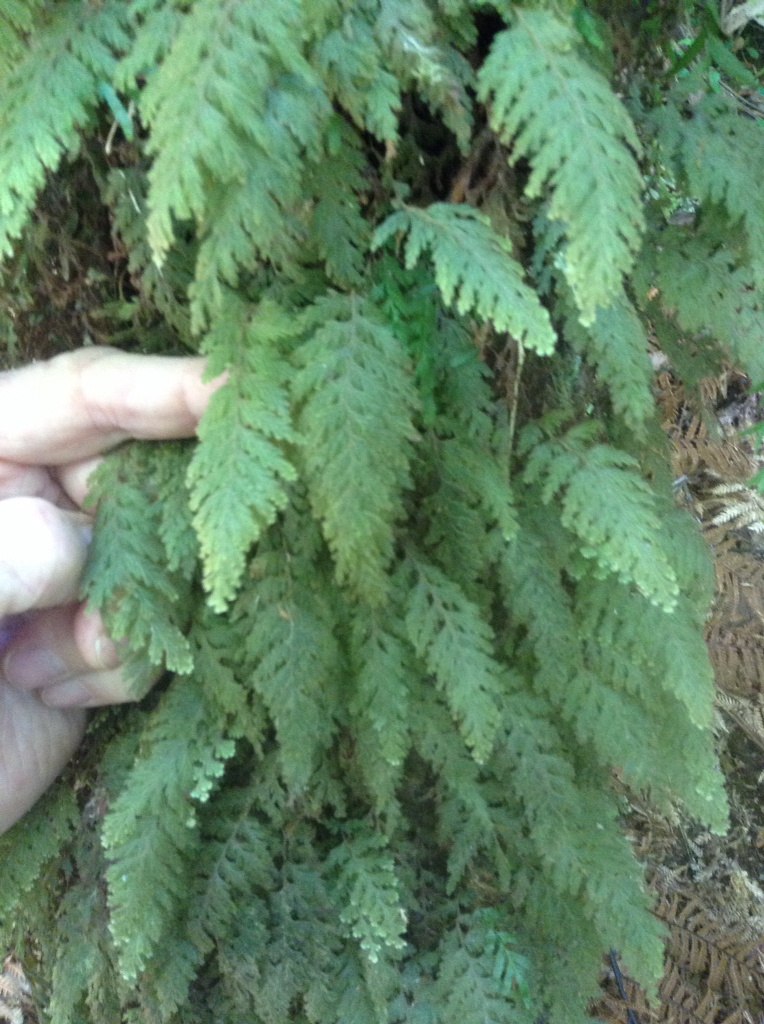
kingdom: Plantae
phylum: Tracheophyta
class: Polypodiopsida
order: Hymenophyllales
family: Hymenophyllaceae
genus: Hymenophyllum
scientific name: Hymenophyllum frankliniae
